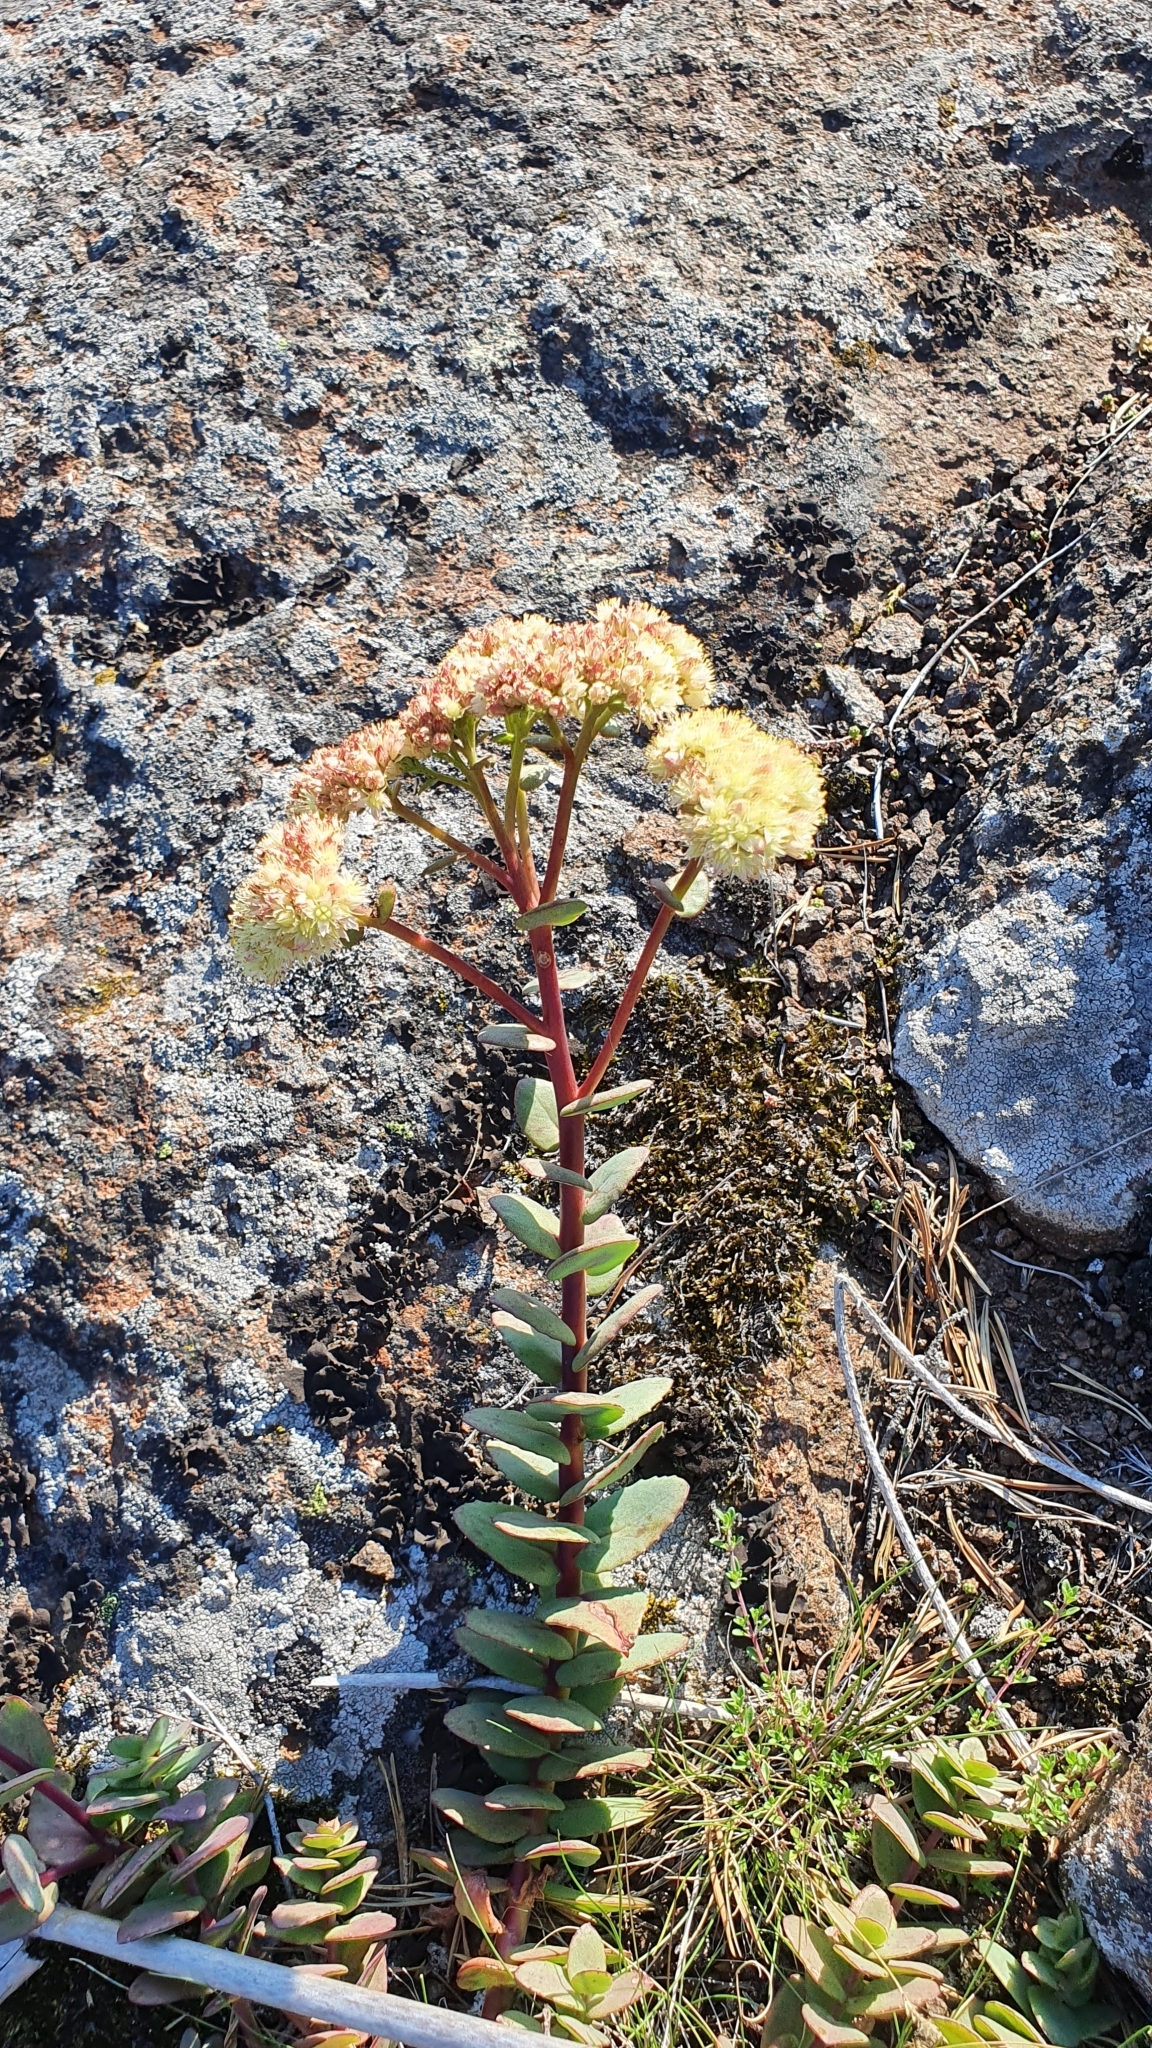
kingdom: Plantae
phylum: Tracheophyta
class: Magnoliopsida
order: Saxifragales
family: Crassulaceae
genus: Hylotelephium
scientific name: Hylotelephium maximum
